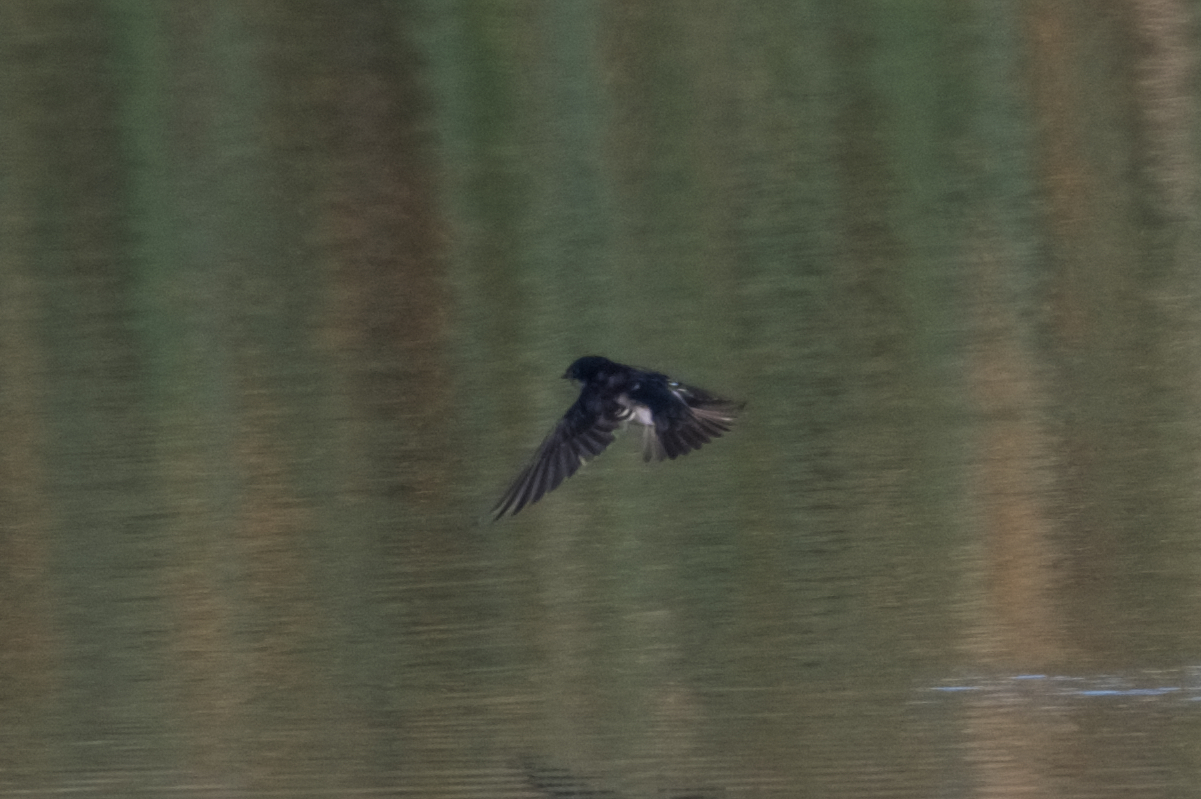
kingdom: Animalia
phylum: Chordata
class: Aves
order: Passeriformes
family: Hirundinidae
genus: Tachycineta
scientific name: Tachycineta bicolor
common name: Tree swallow
